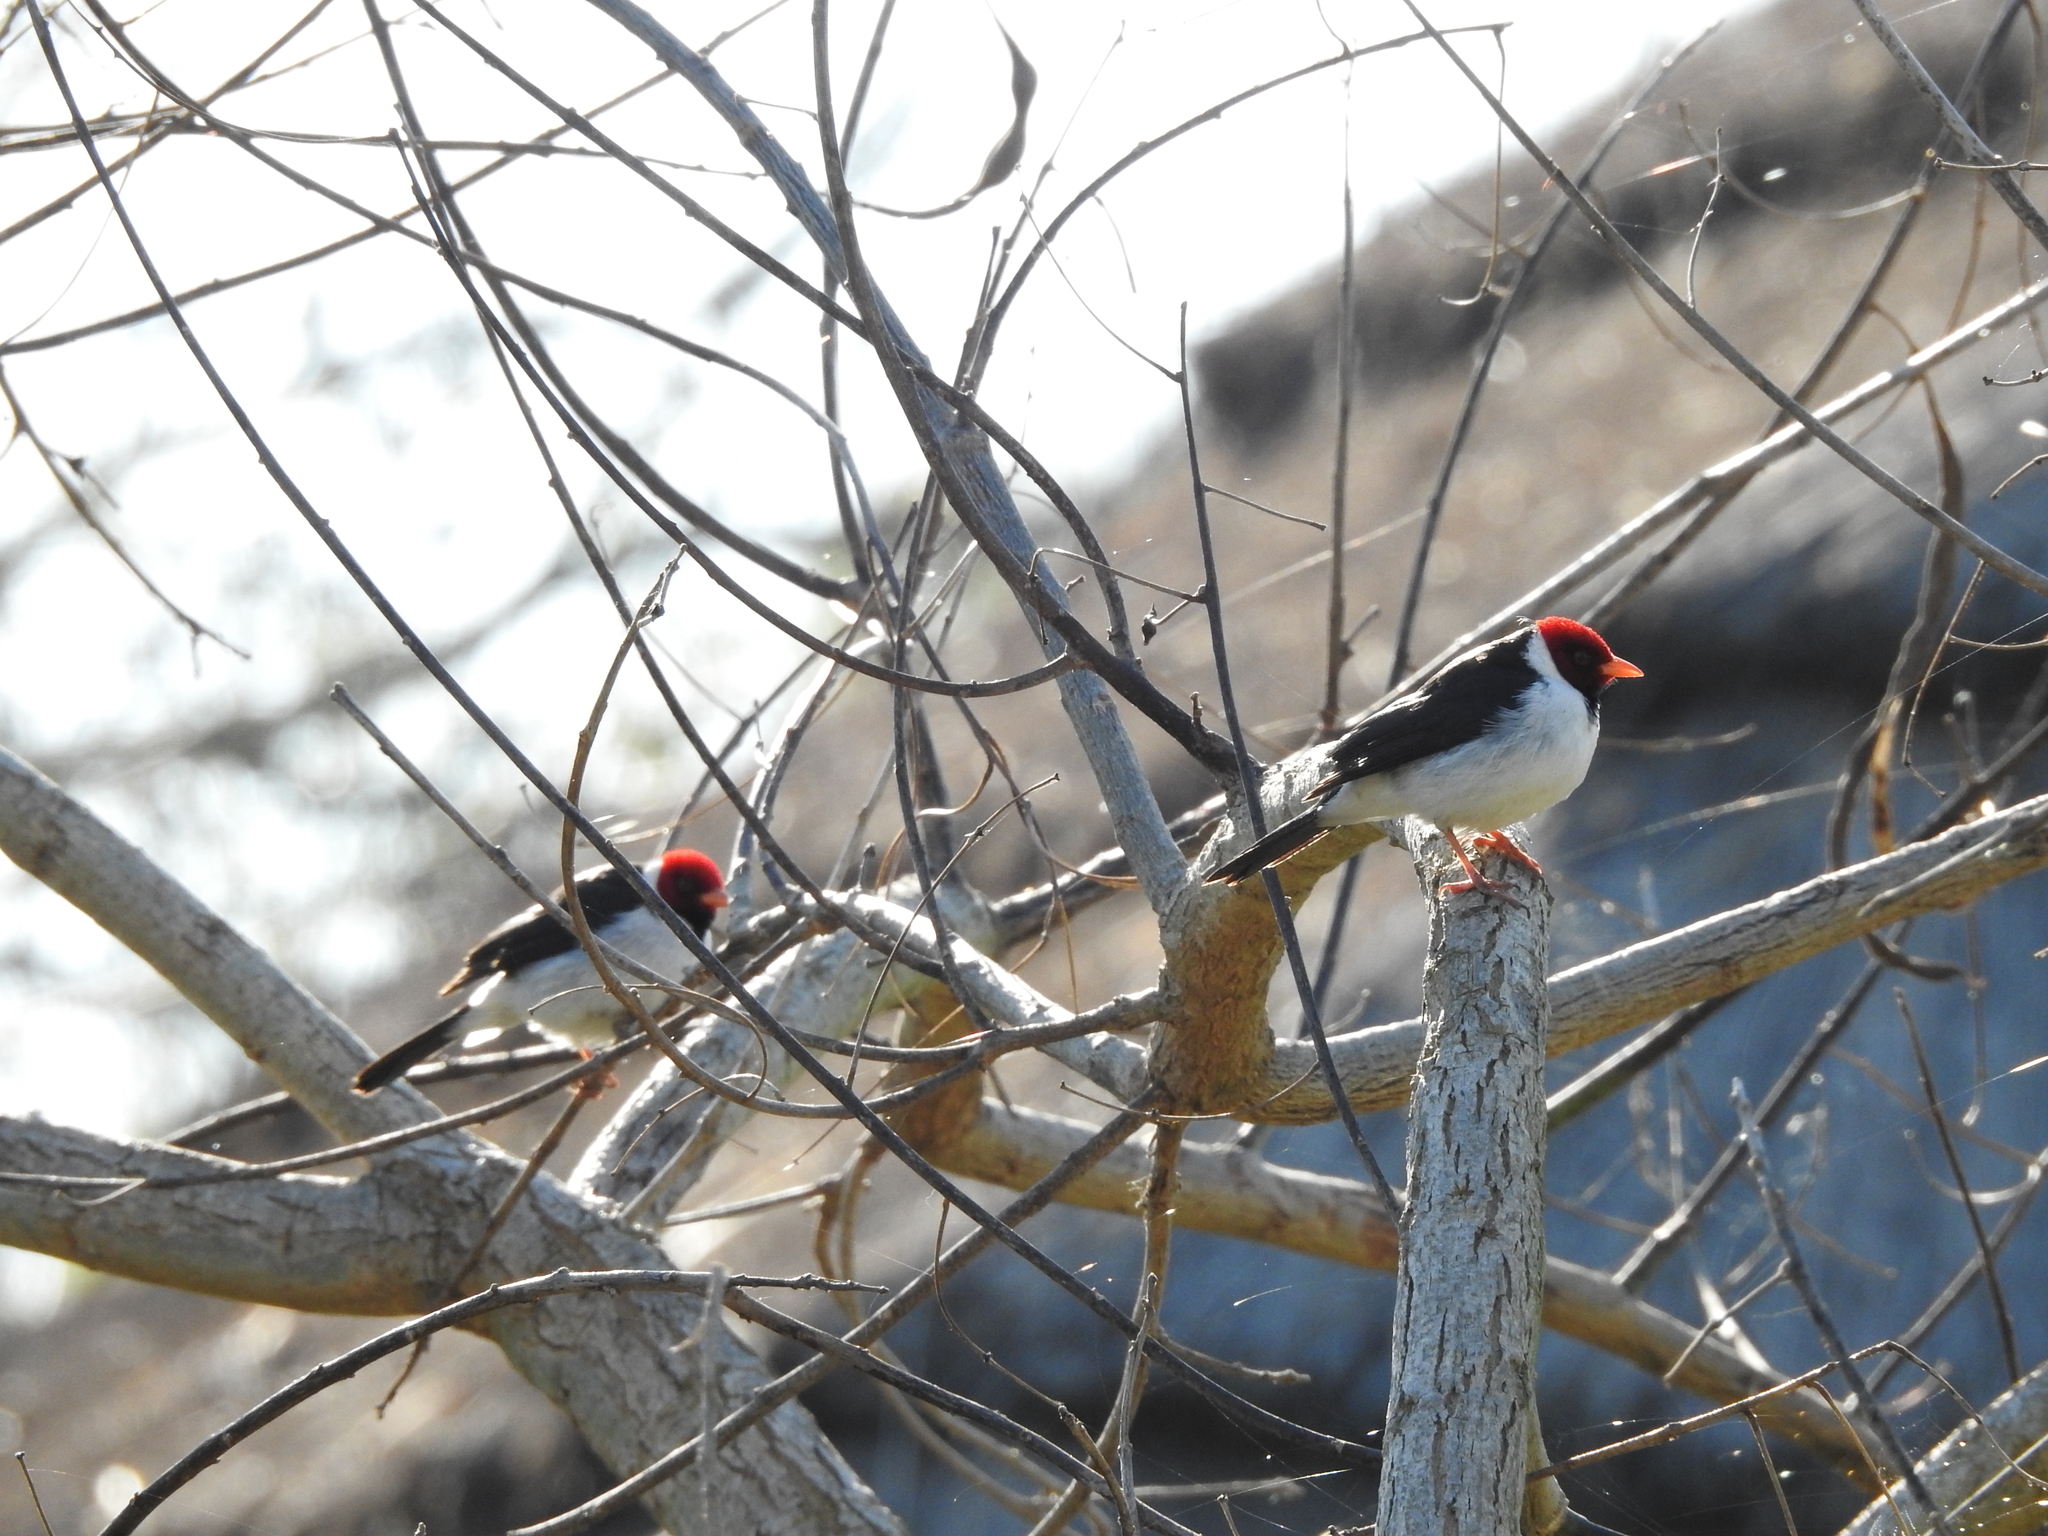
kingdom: Animalia
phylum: Chordata
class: Aves
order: Passeriformes
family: Thraupidae
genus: Paroaria
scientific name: Paroaria capitata
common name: Yellow-billed cardinal
